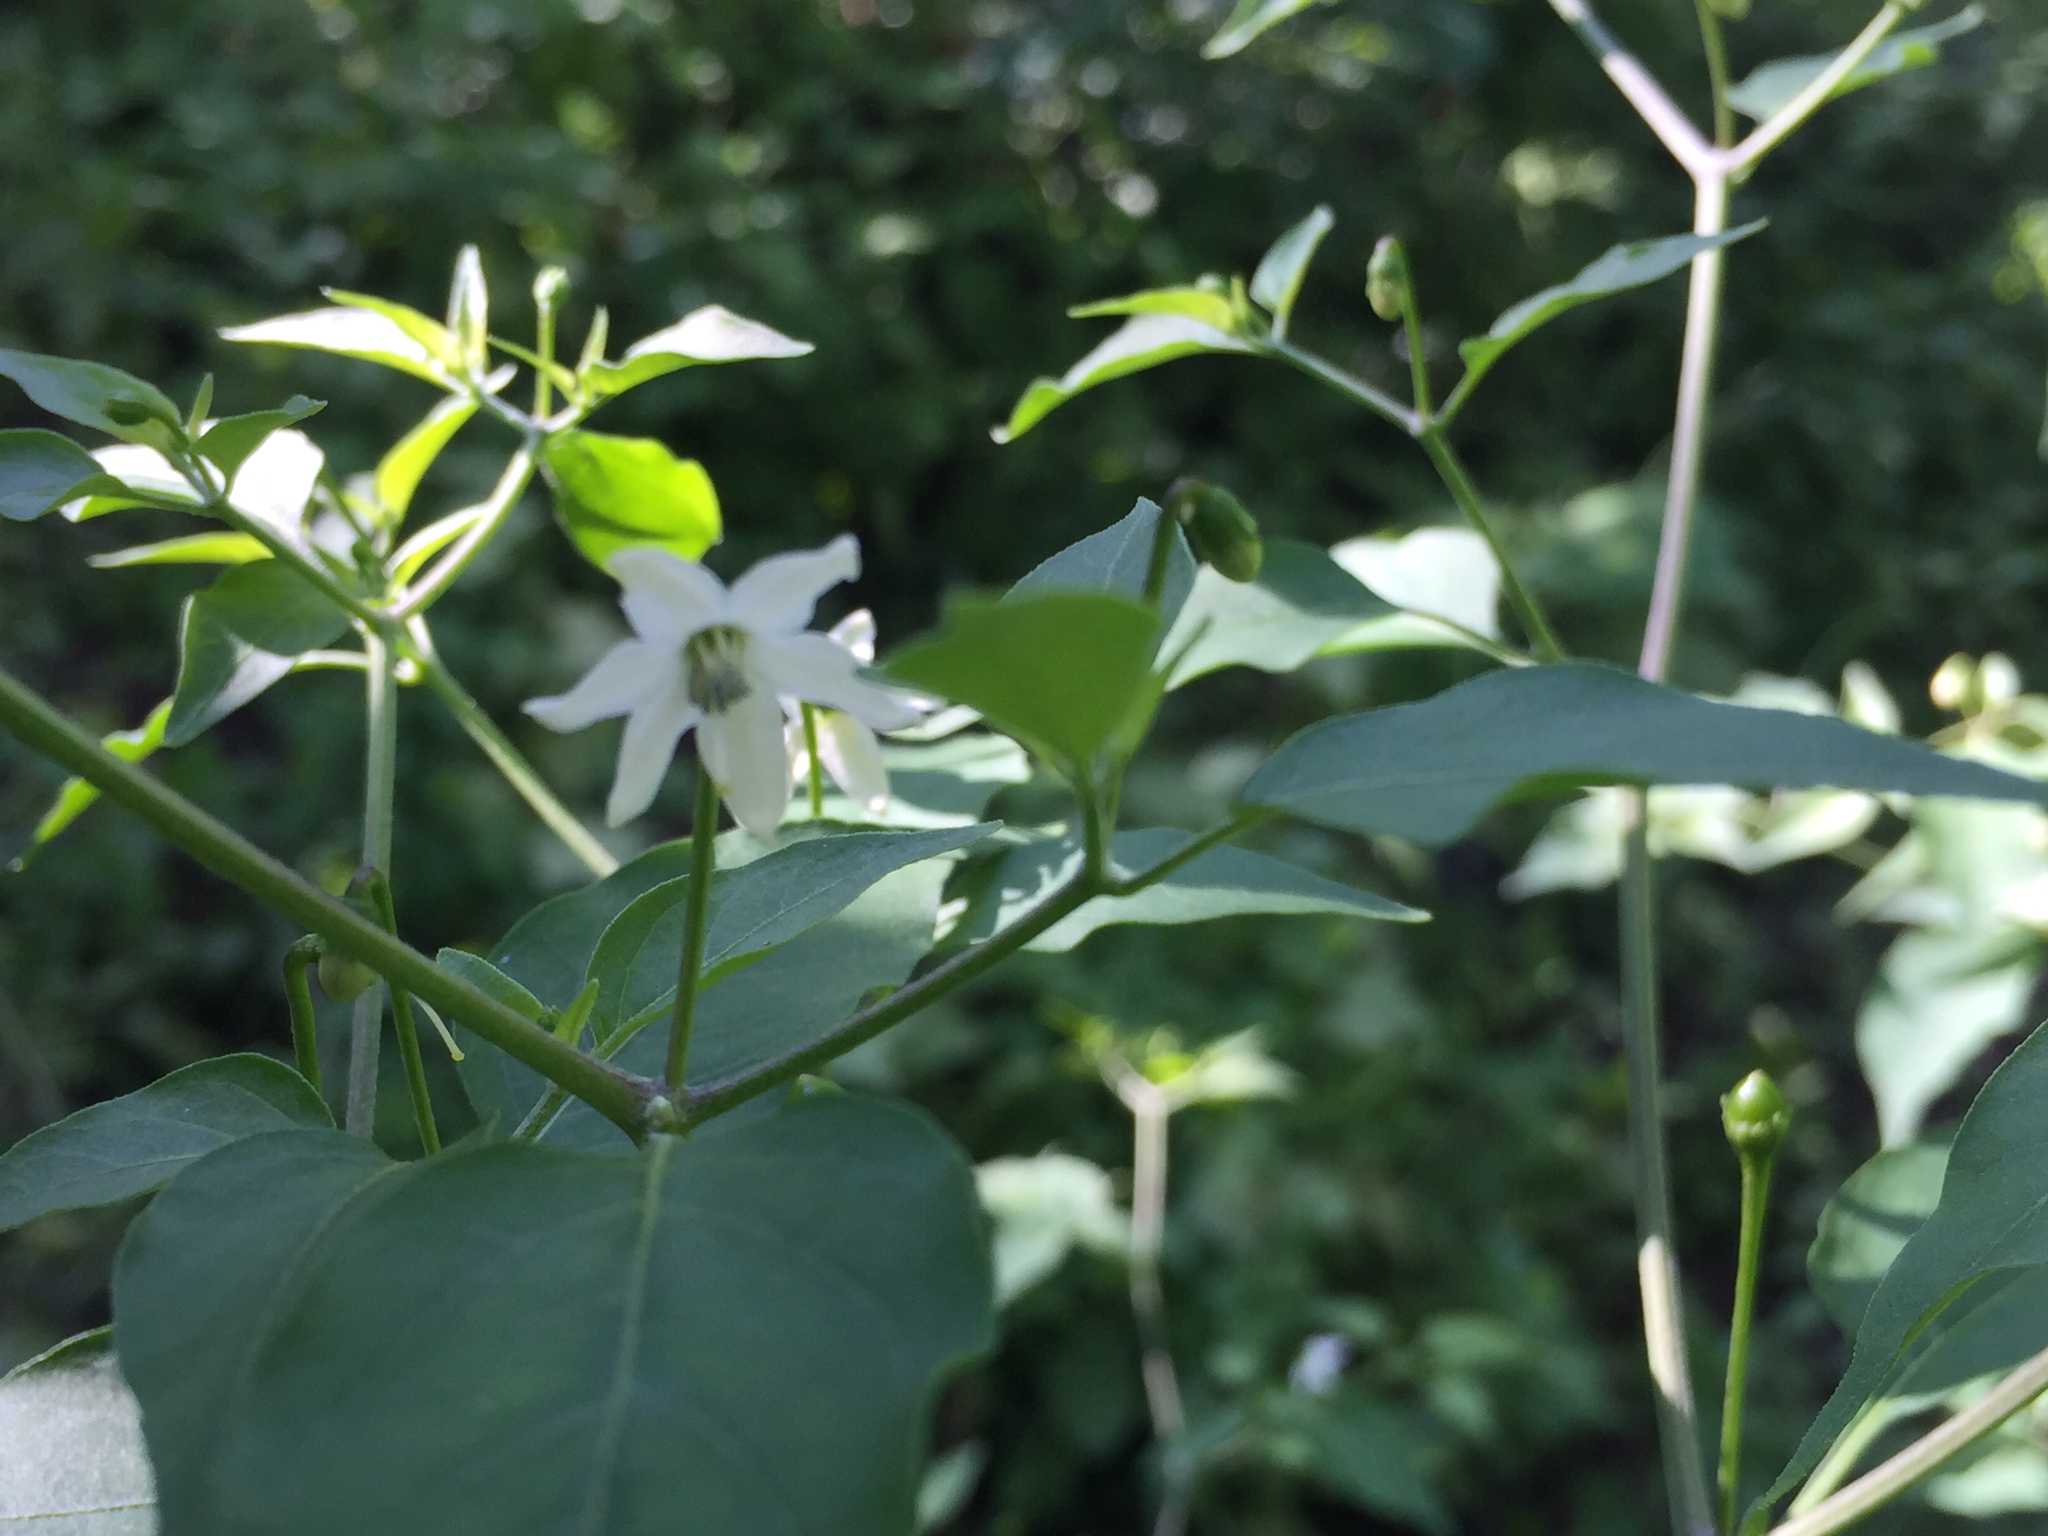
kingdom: Plantae
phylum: Tracheophyta
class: Magnoliopsida
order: Solanales
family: Solanaceae
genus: Capsicum
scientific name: Capsicum annuum
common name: Sweet pepper
